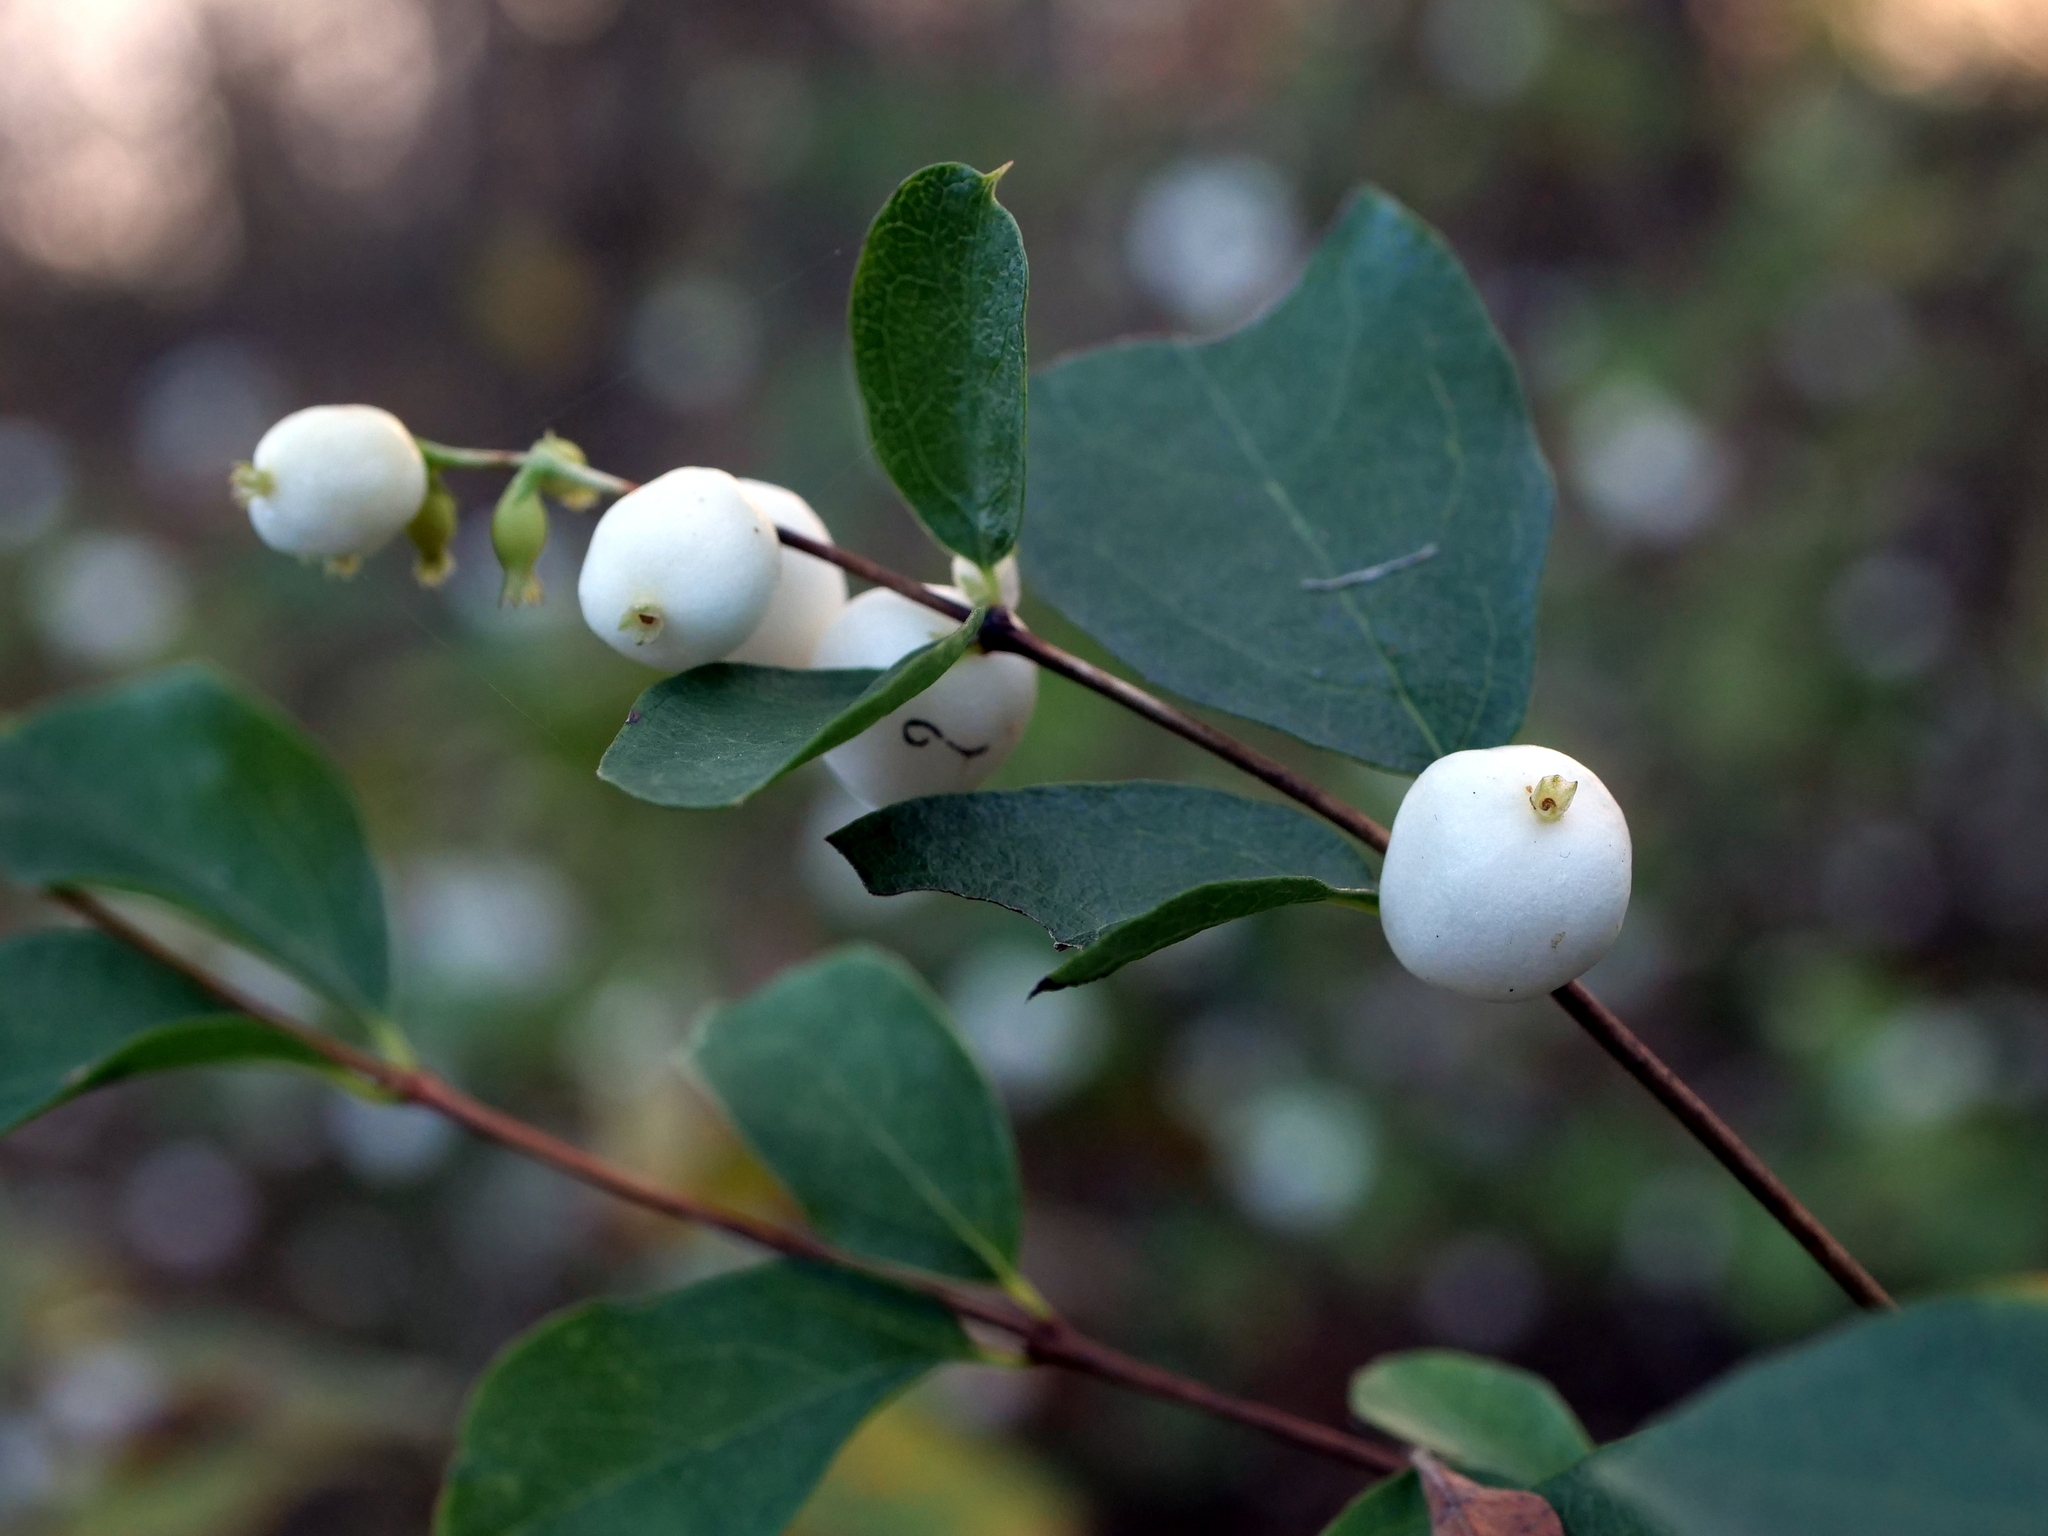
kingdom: Plantae
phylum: Tracheophyta
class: Magnoliopsida
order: Dipsacales
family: Caprifoliaceae
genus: Symphoricarpos
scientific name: Symphoricarpos albus
